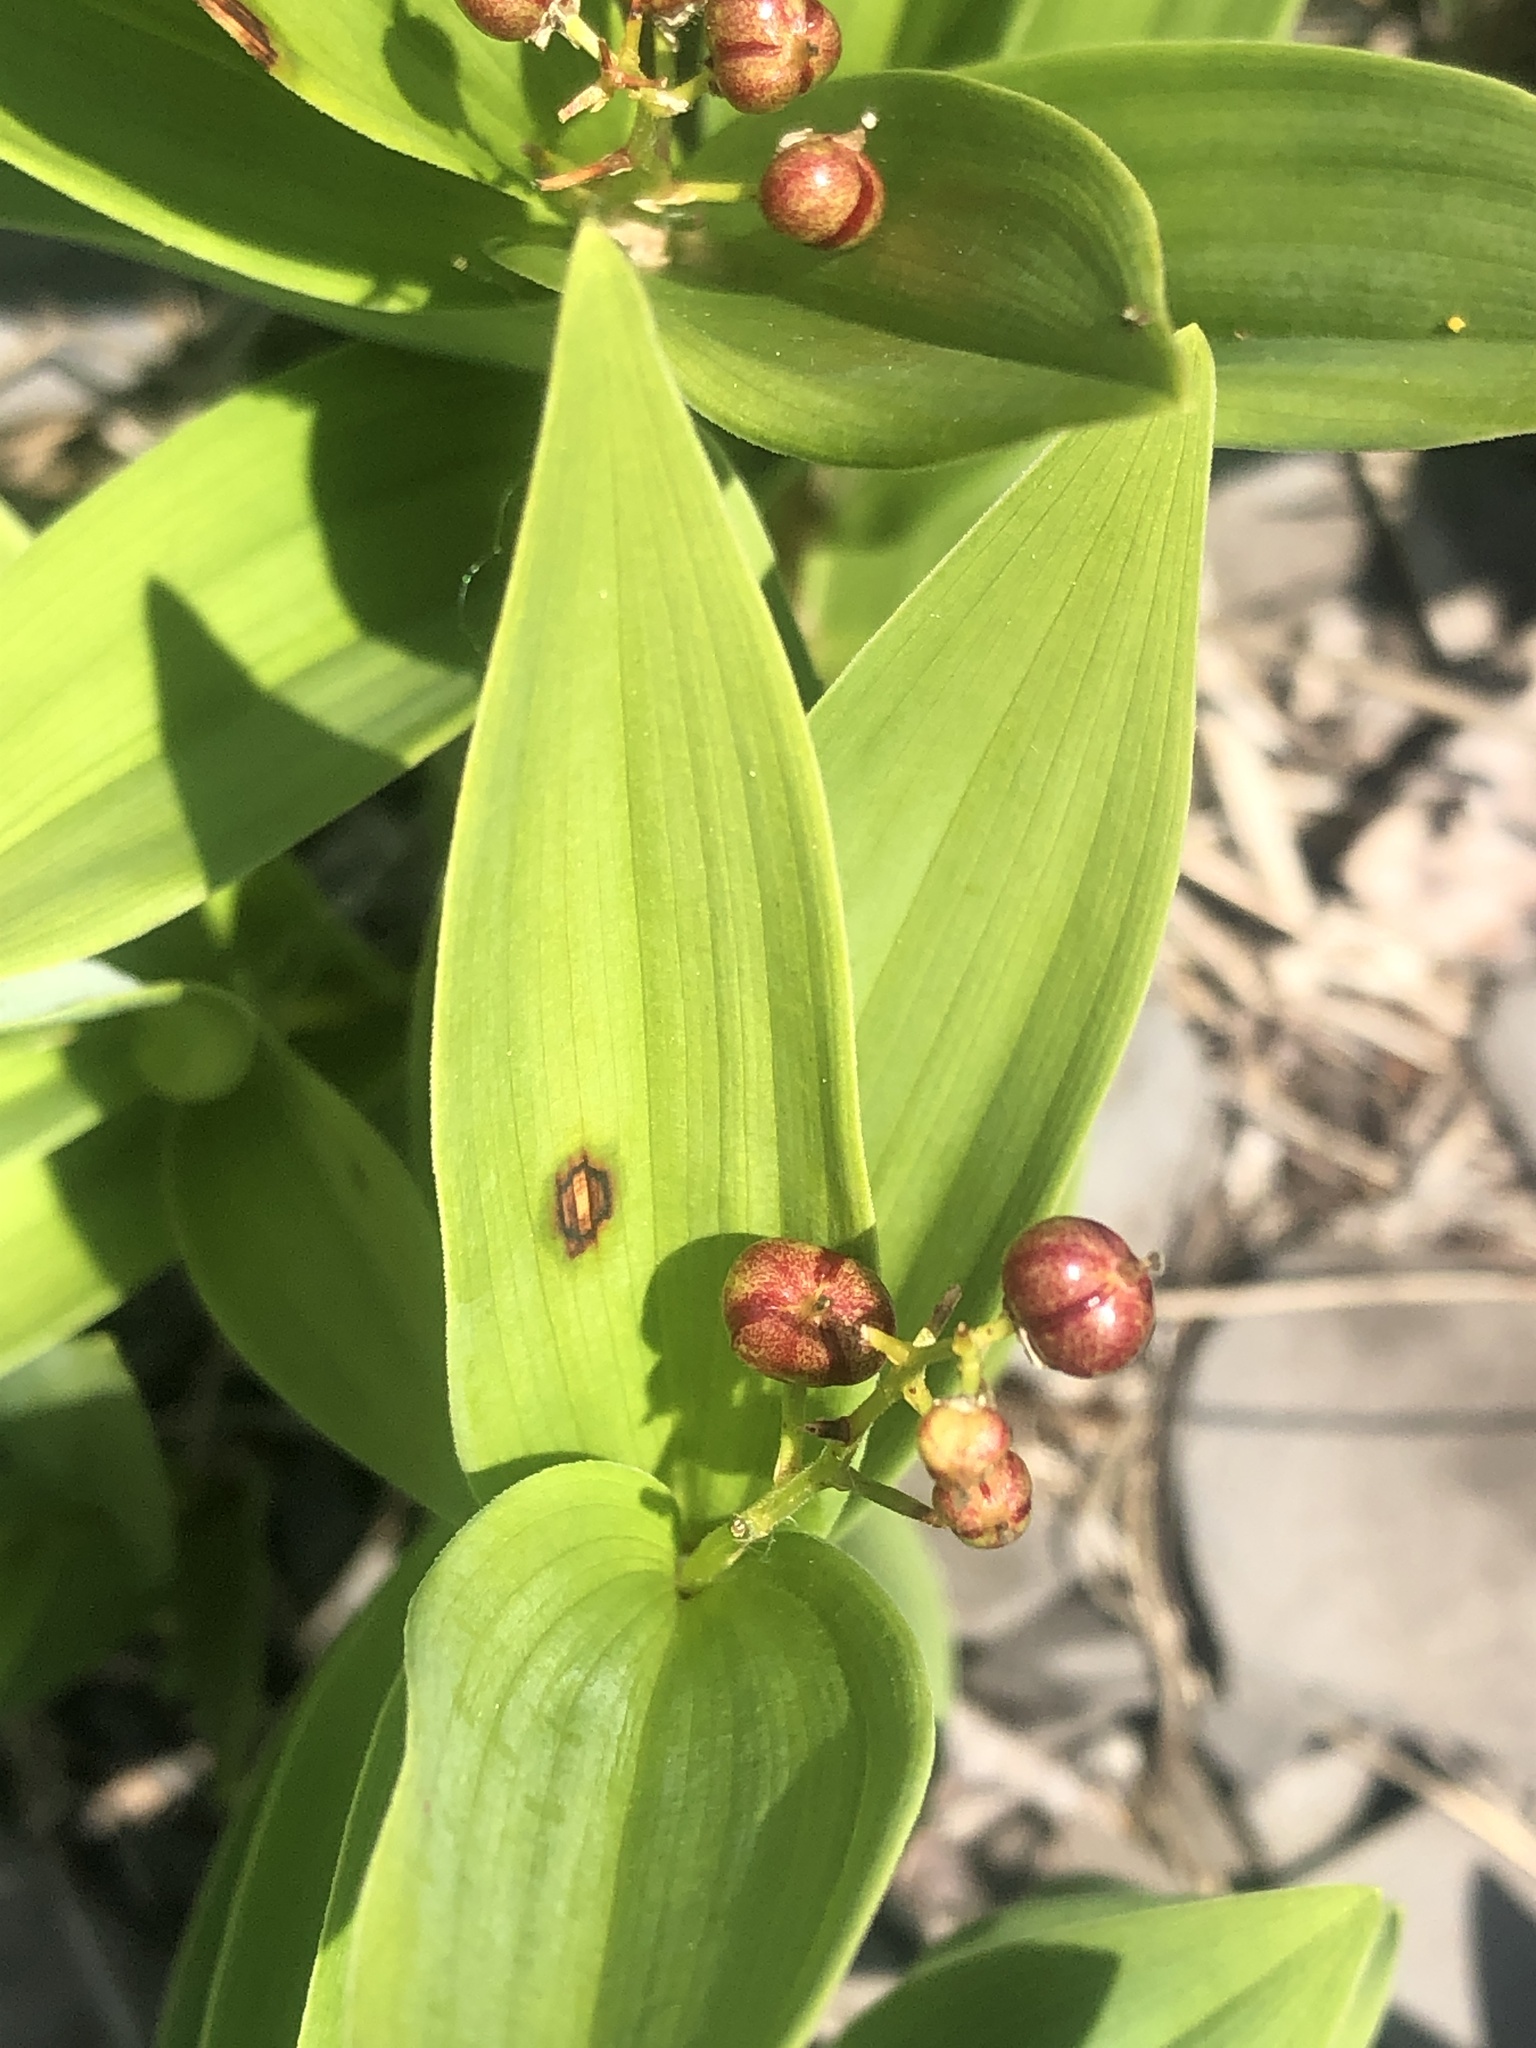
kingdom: Plantae
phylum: Tracheophyta
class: Liliopsida
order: Asparagales
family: Asparagaceae
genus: Maianthemum
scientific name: Maianthemum stellatum
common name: Little false solomon's seal
